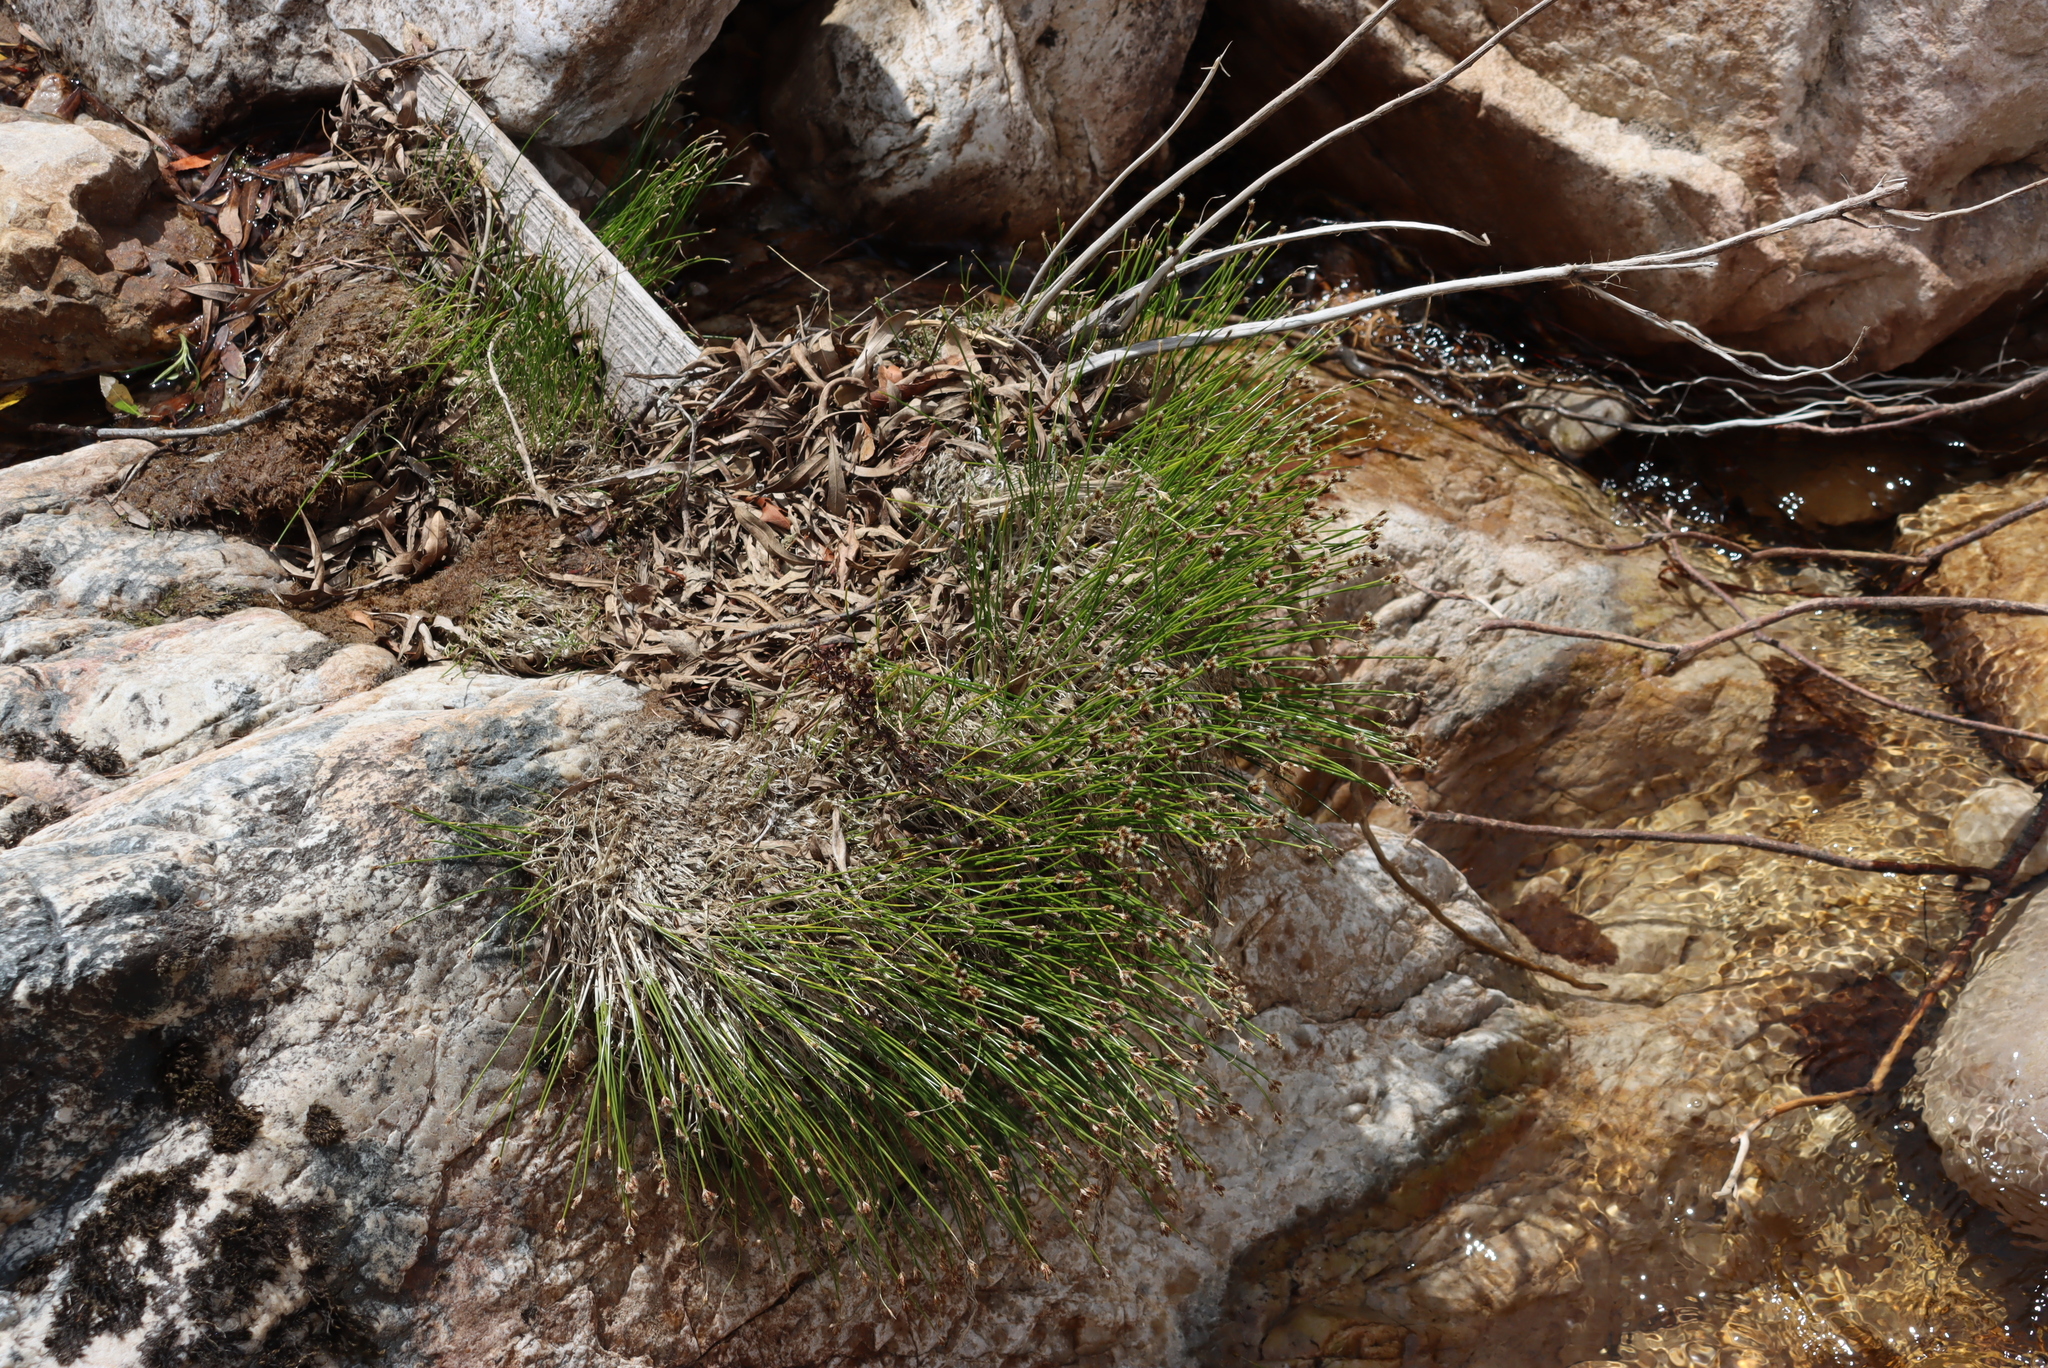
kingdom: Plantae
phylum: Tracheophyta
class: Liliopsida
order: Poales
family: Cyperaceae
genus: Isolepis
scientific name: Isolepis digitata
